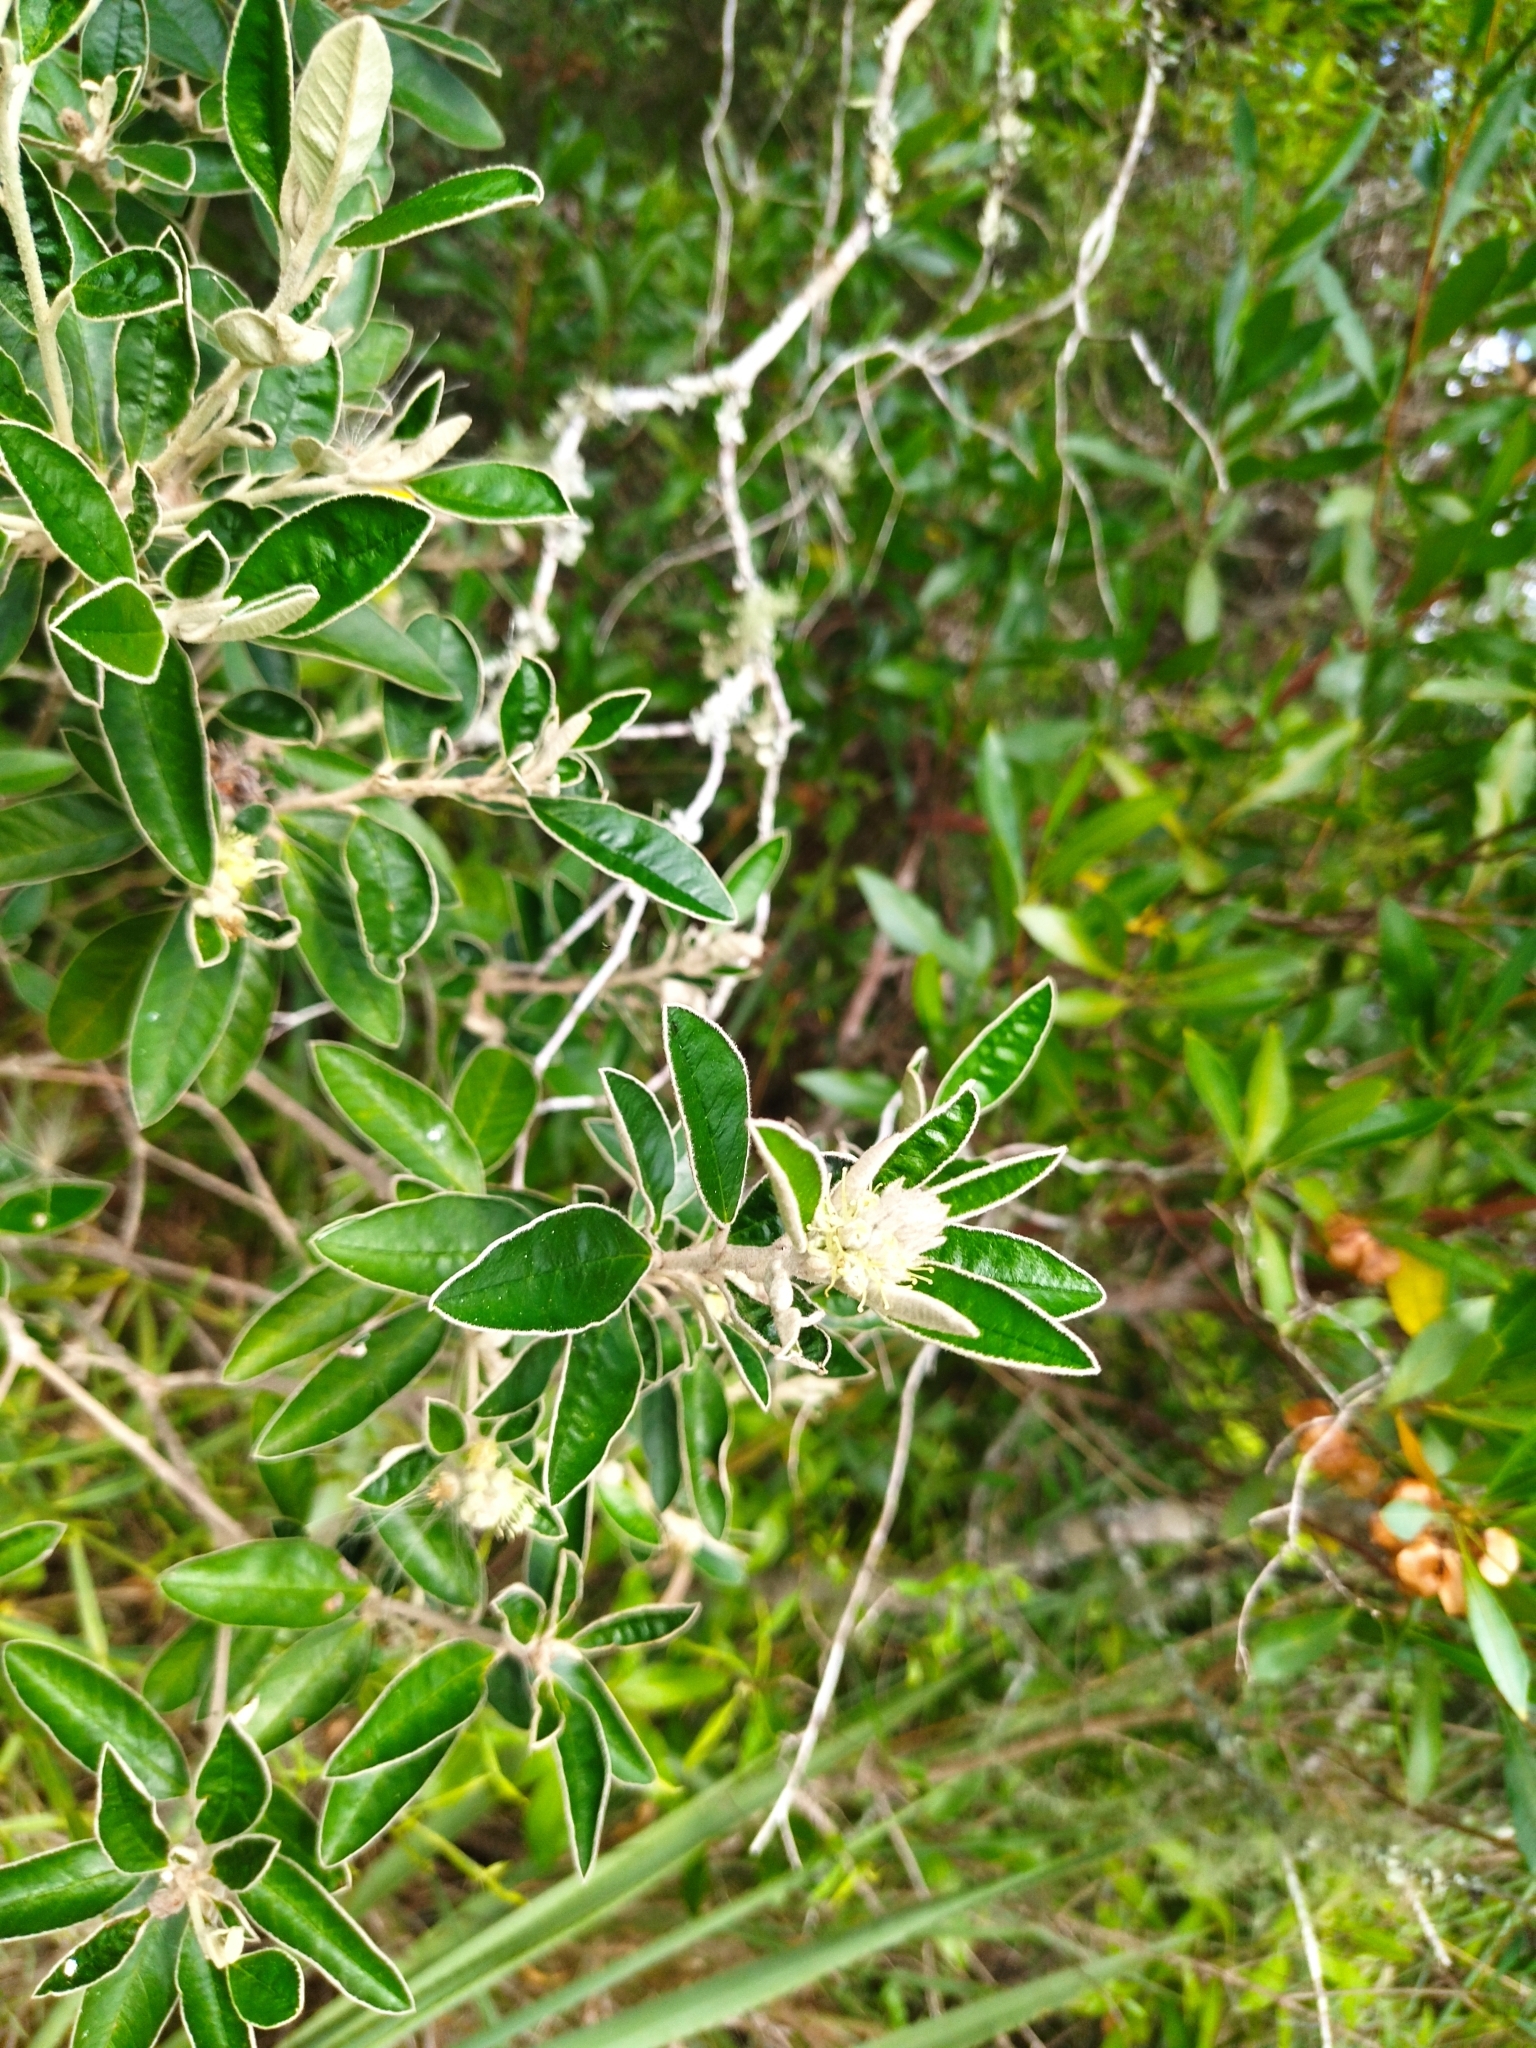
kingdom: Plantae
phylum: Tracheophyta
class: Magnoliopsida
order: Malpighiales
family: Euphorbiaceae
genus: Croton
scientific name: Croton hilarii
